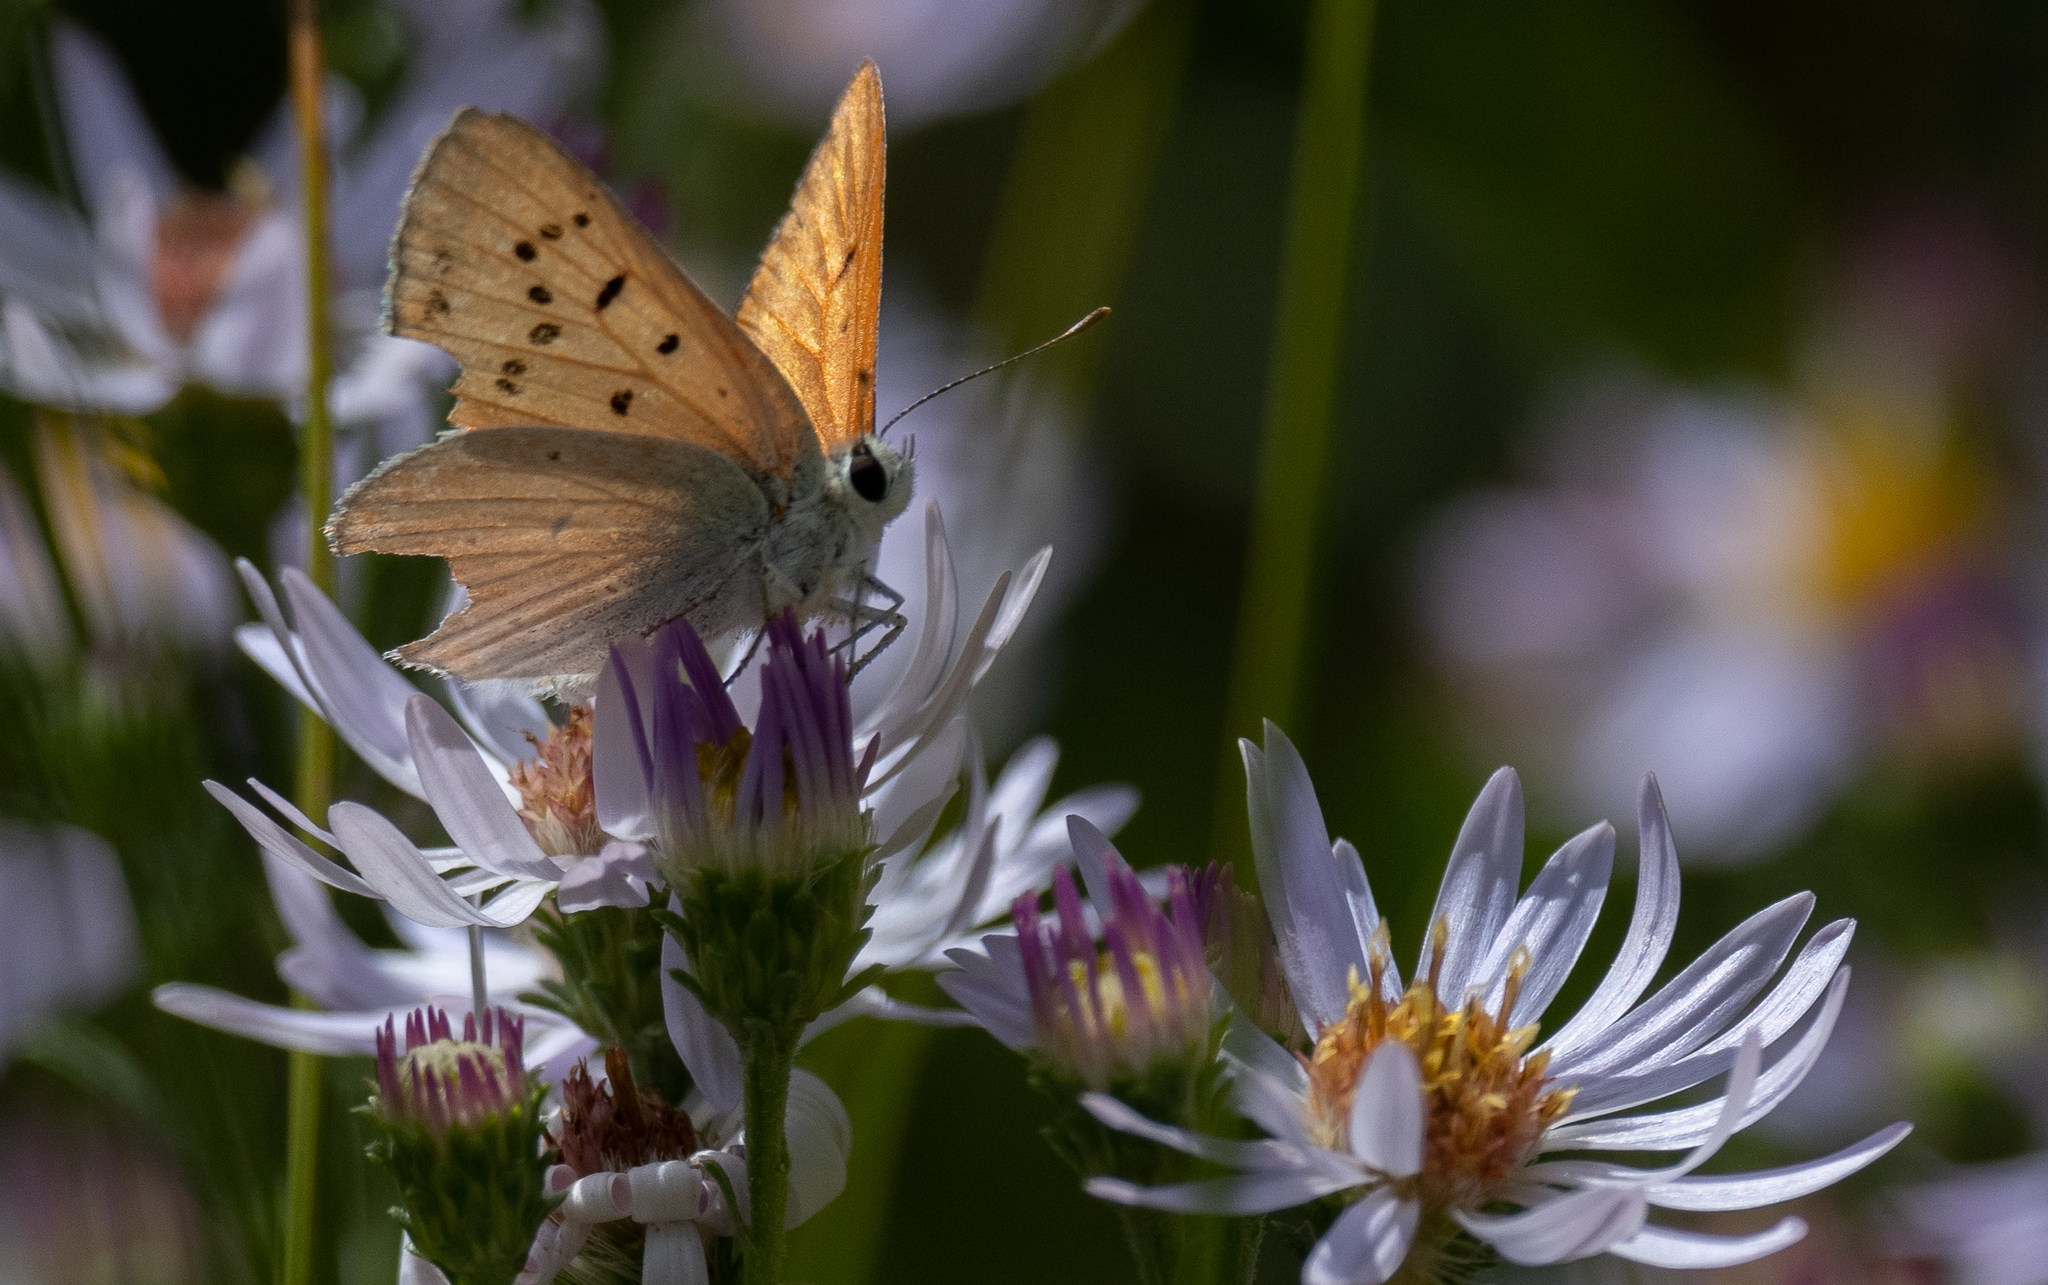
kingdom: Animalia
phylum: Arthropoda
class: Insecta
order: Lepidoptera
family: Lycaenidae
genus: Tharsalea
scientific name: Tharsalea rubidus
